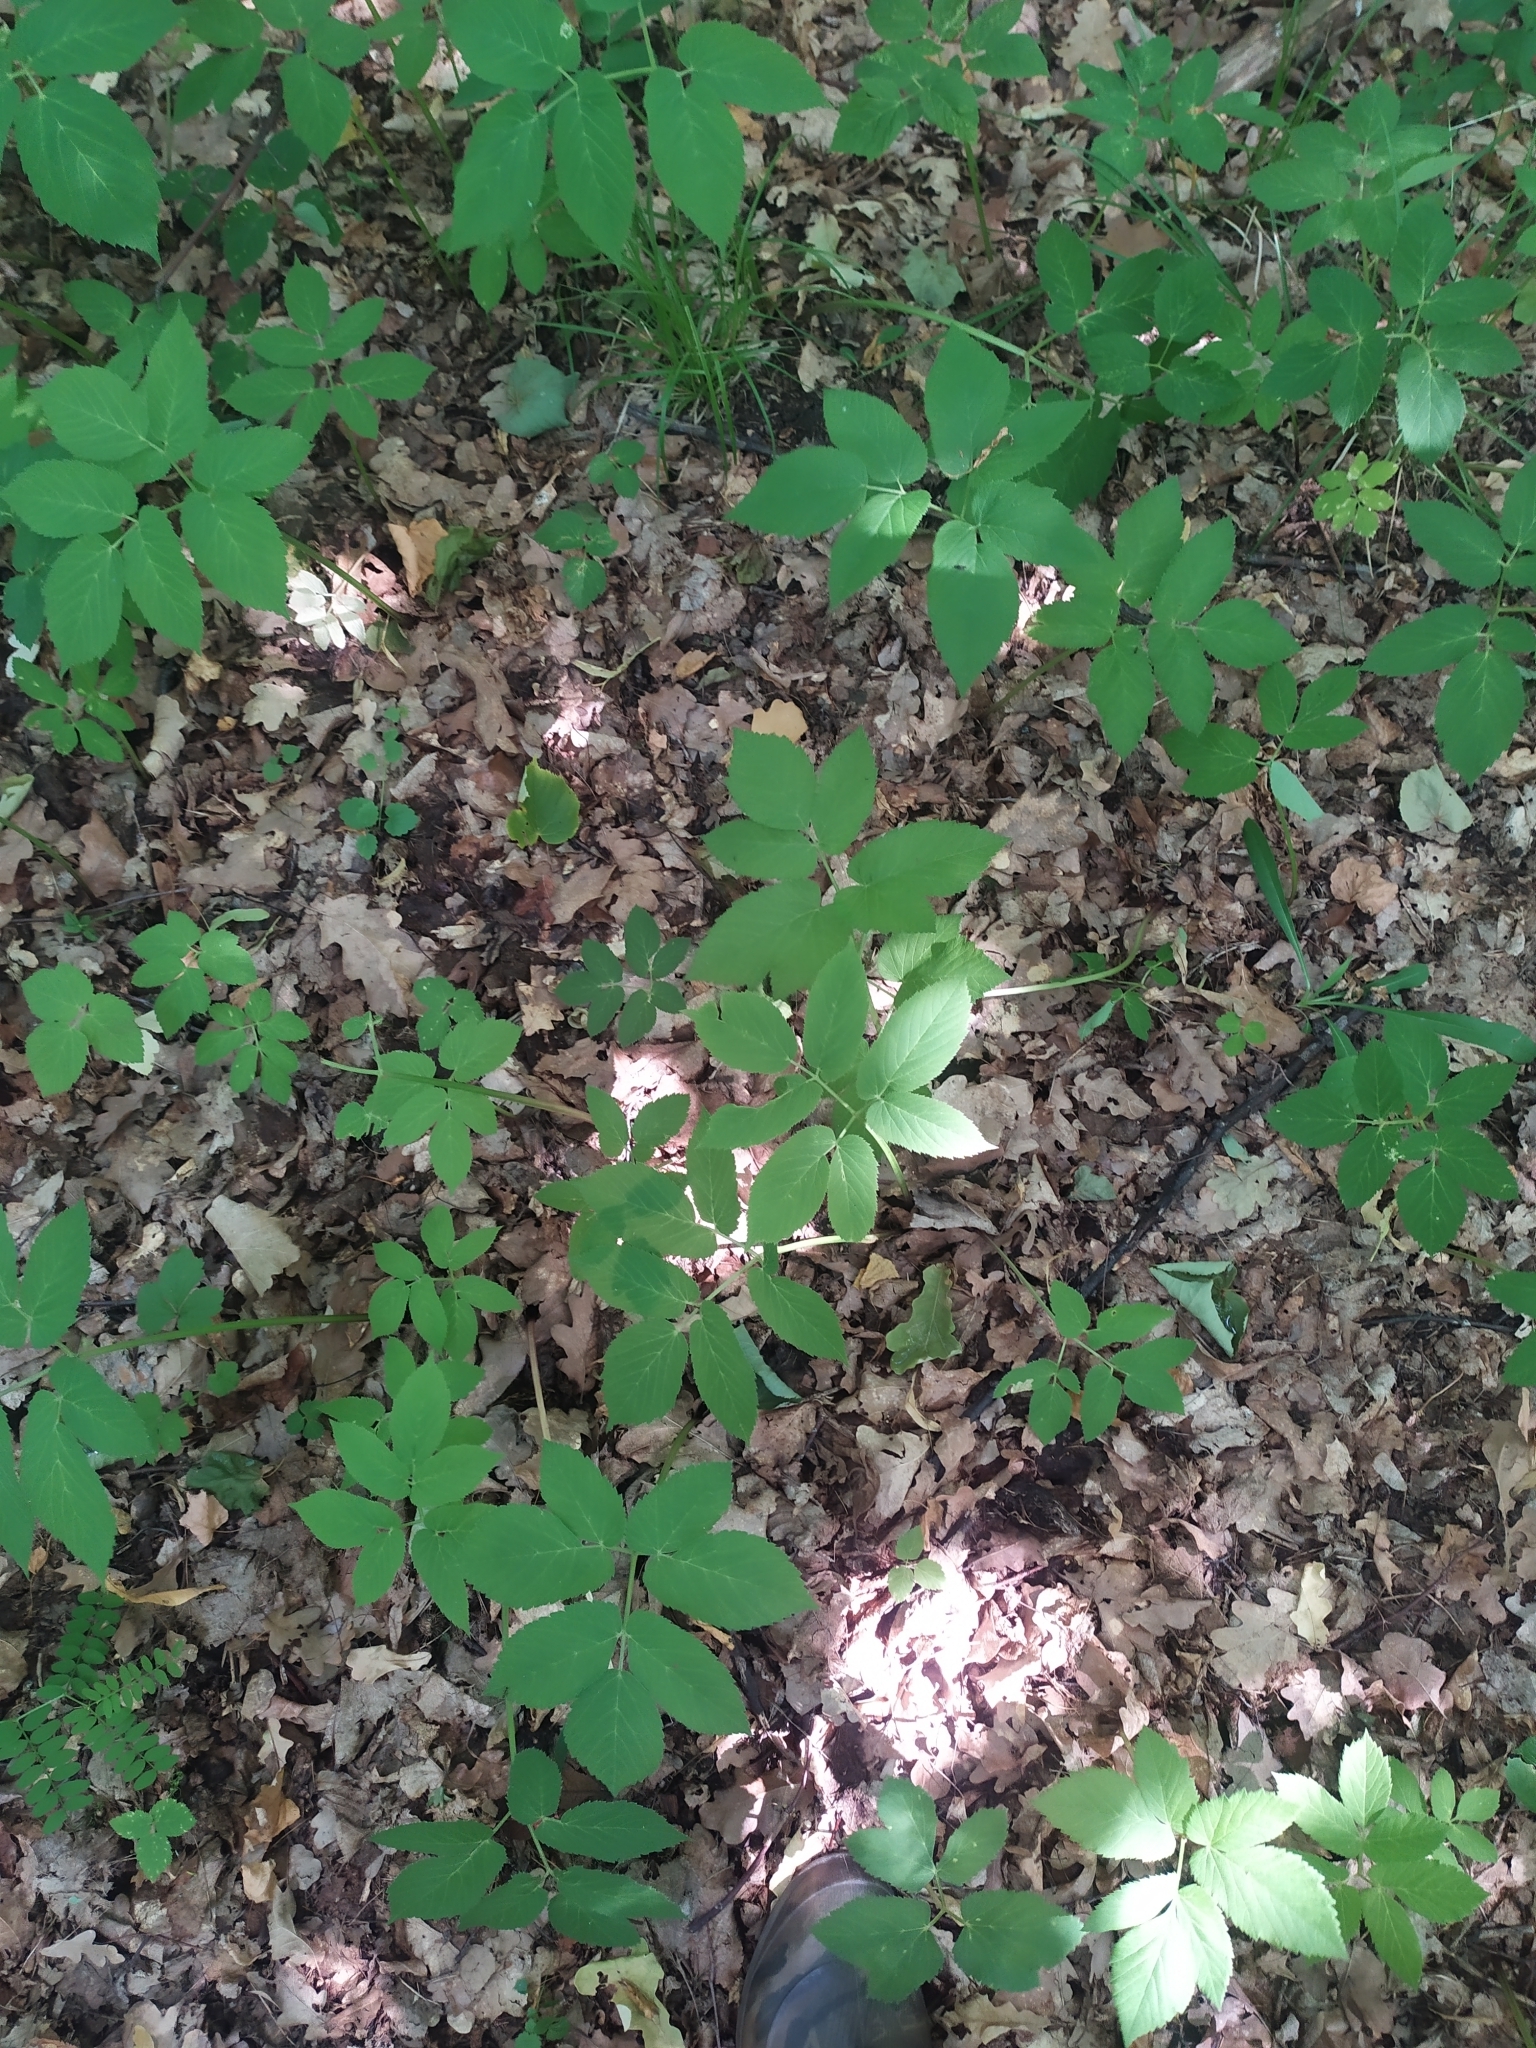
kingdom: Plantae
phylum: Tracheophyta
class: Magnoliopsida
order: Apiales
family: Apiaceae
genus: Aegopodium
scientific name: Aegopodium podagraria
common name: Ground-elder
